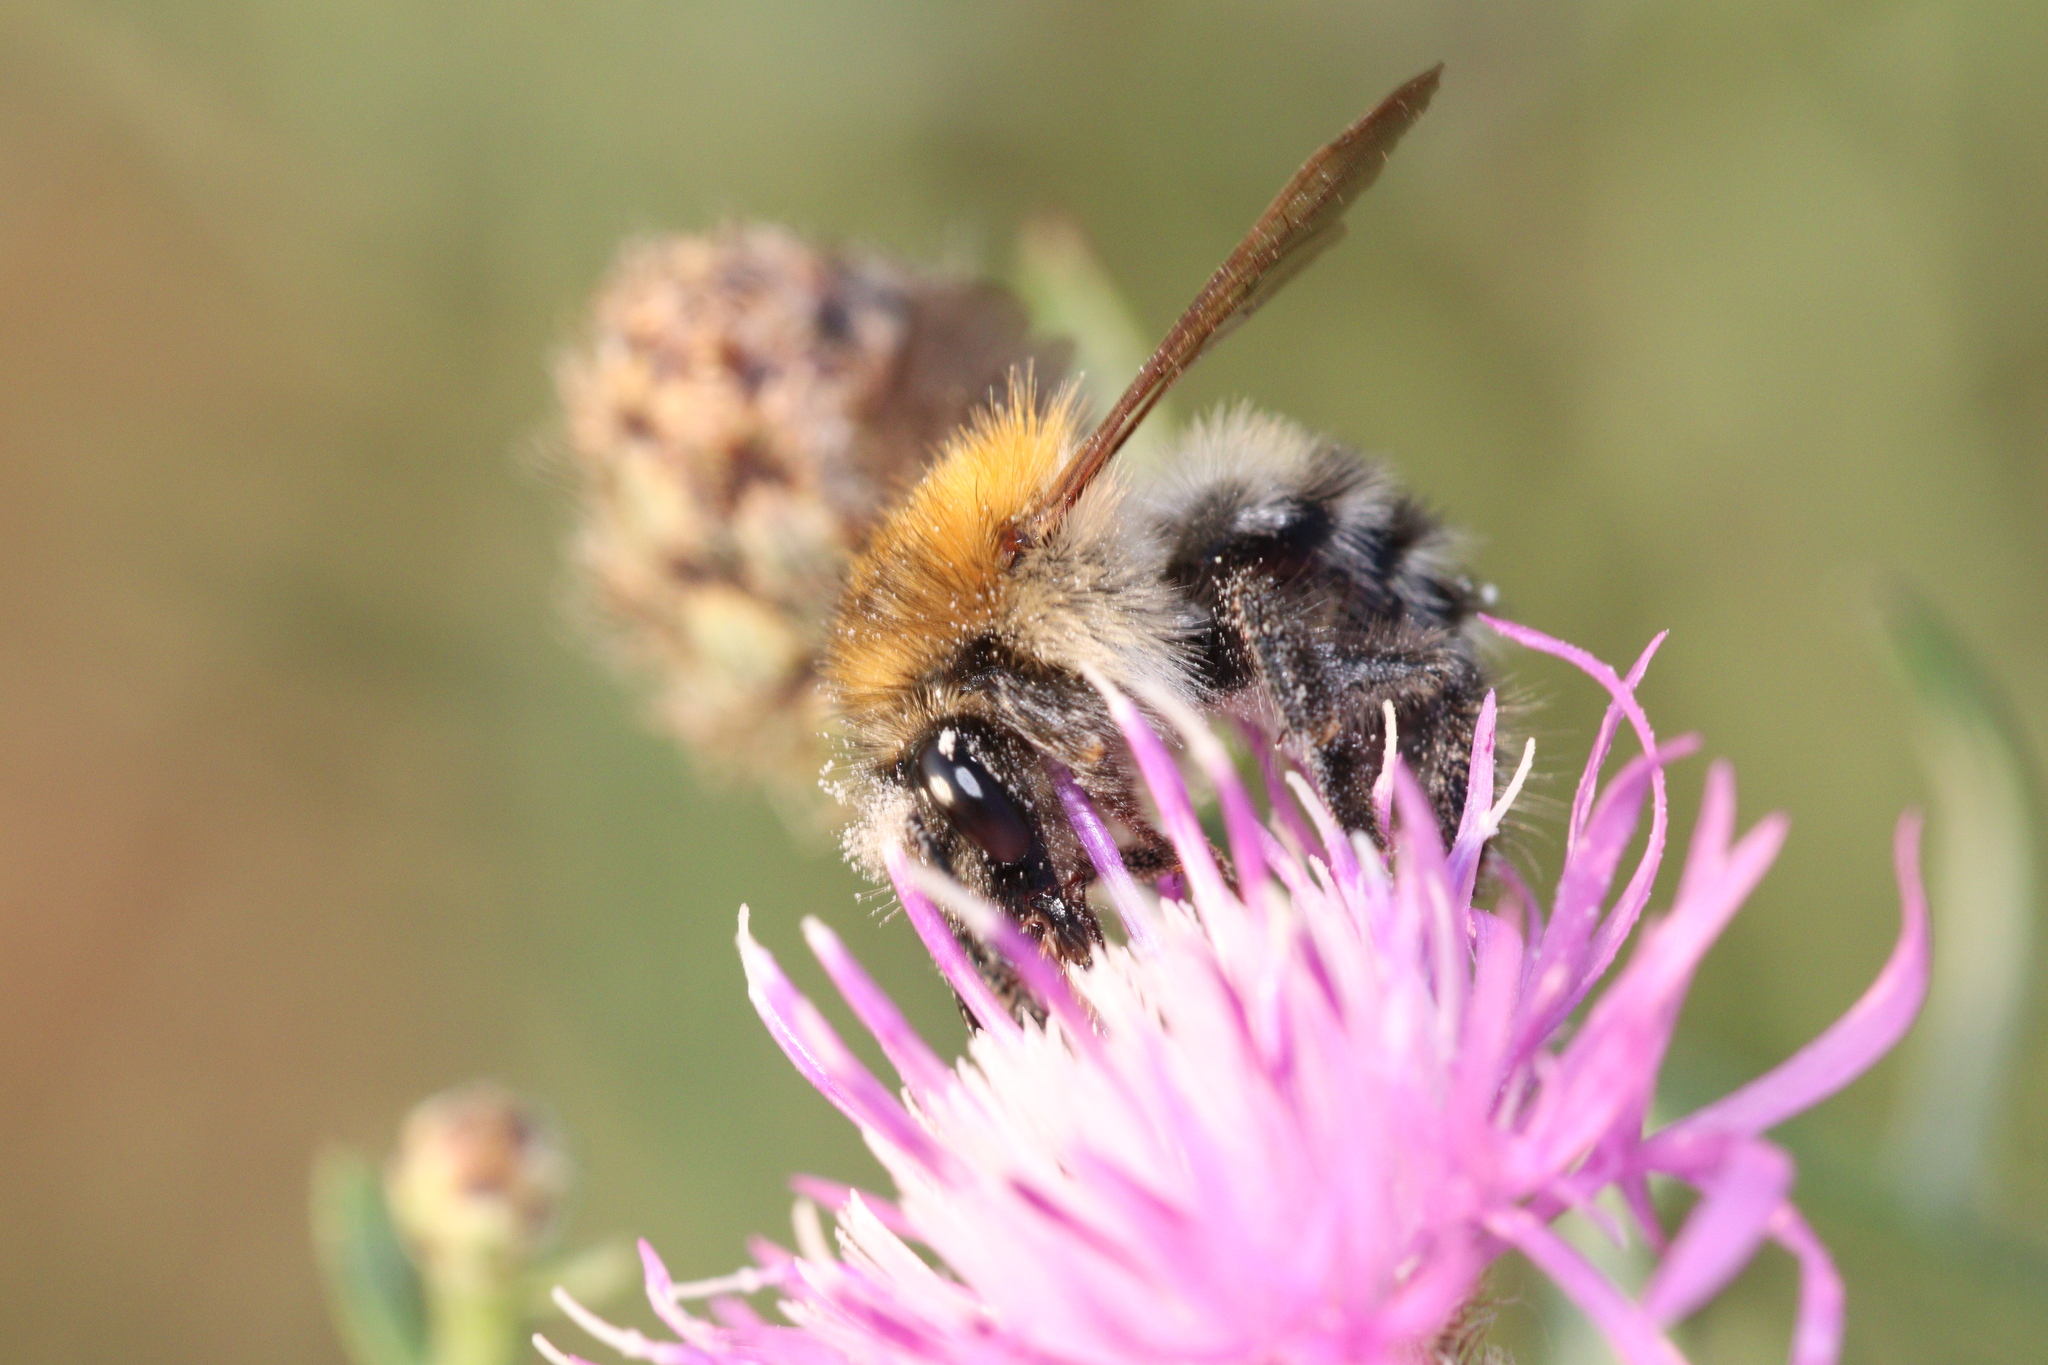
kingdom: Animalia
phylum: Arthropoda
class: Insecta
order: Hymenoptera
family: Apidae
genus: Bombus
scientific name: Bombus pascuorum
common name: Common carder bee
